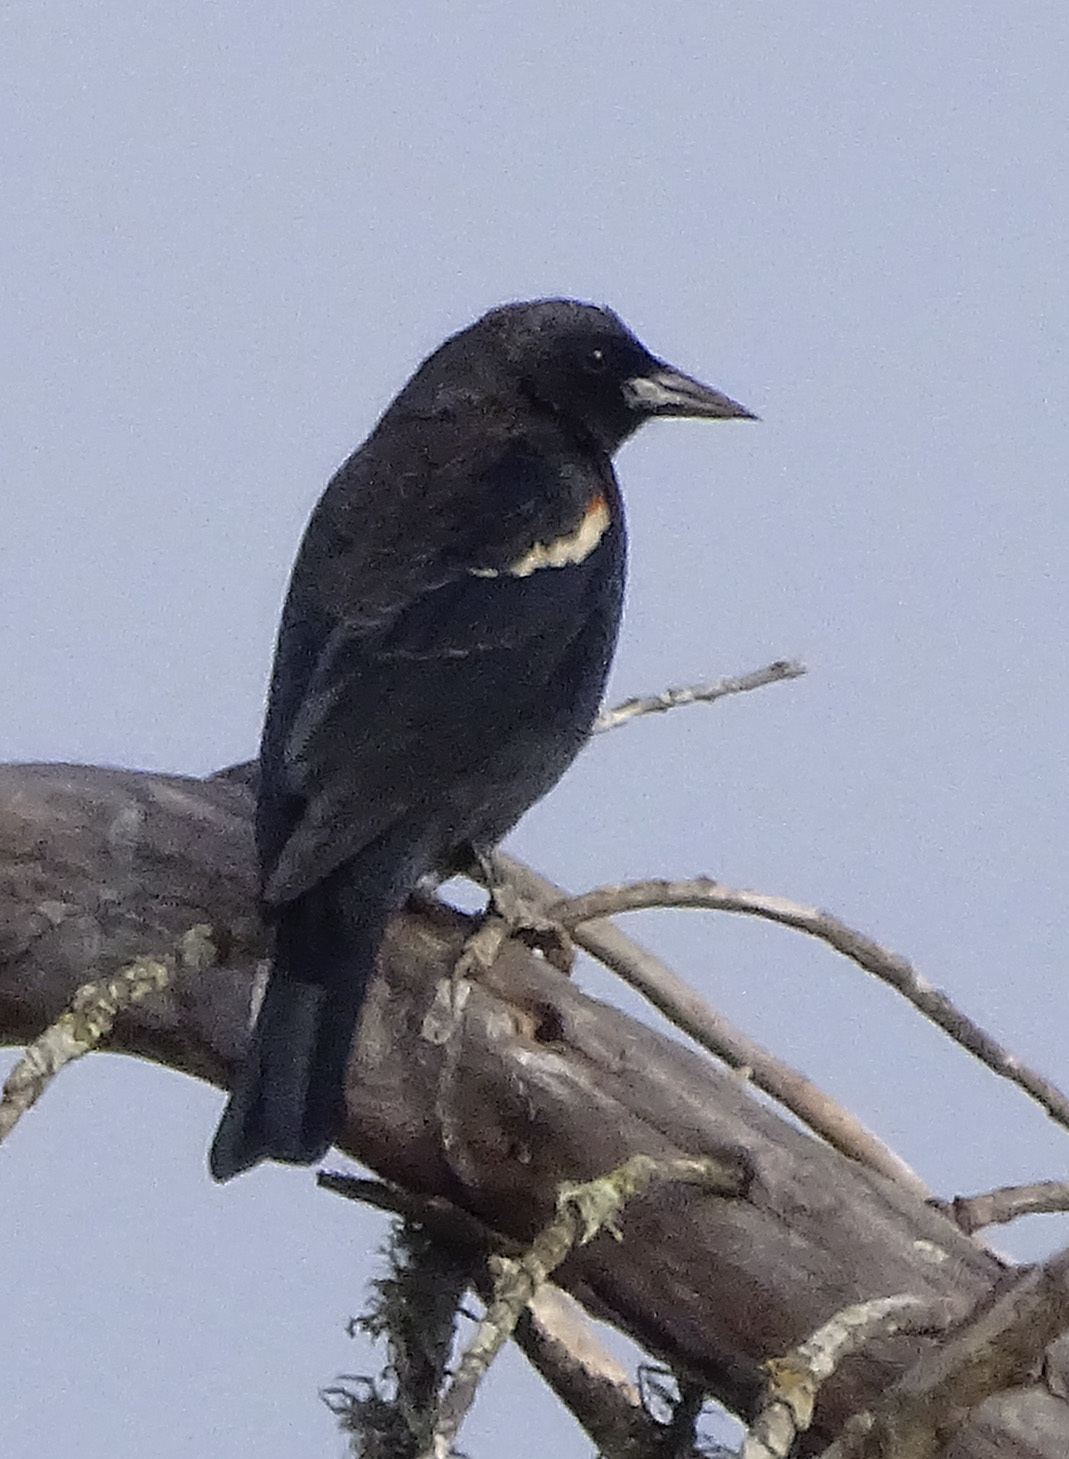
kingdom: Animalia
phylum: Chordata
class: Aves
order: Passeriformes
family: Icteridae
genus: Agelaius
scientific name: Agelaius tricolor
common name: Tricolored blackbird
